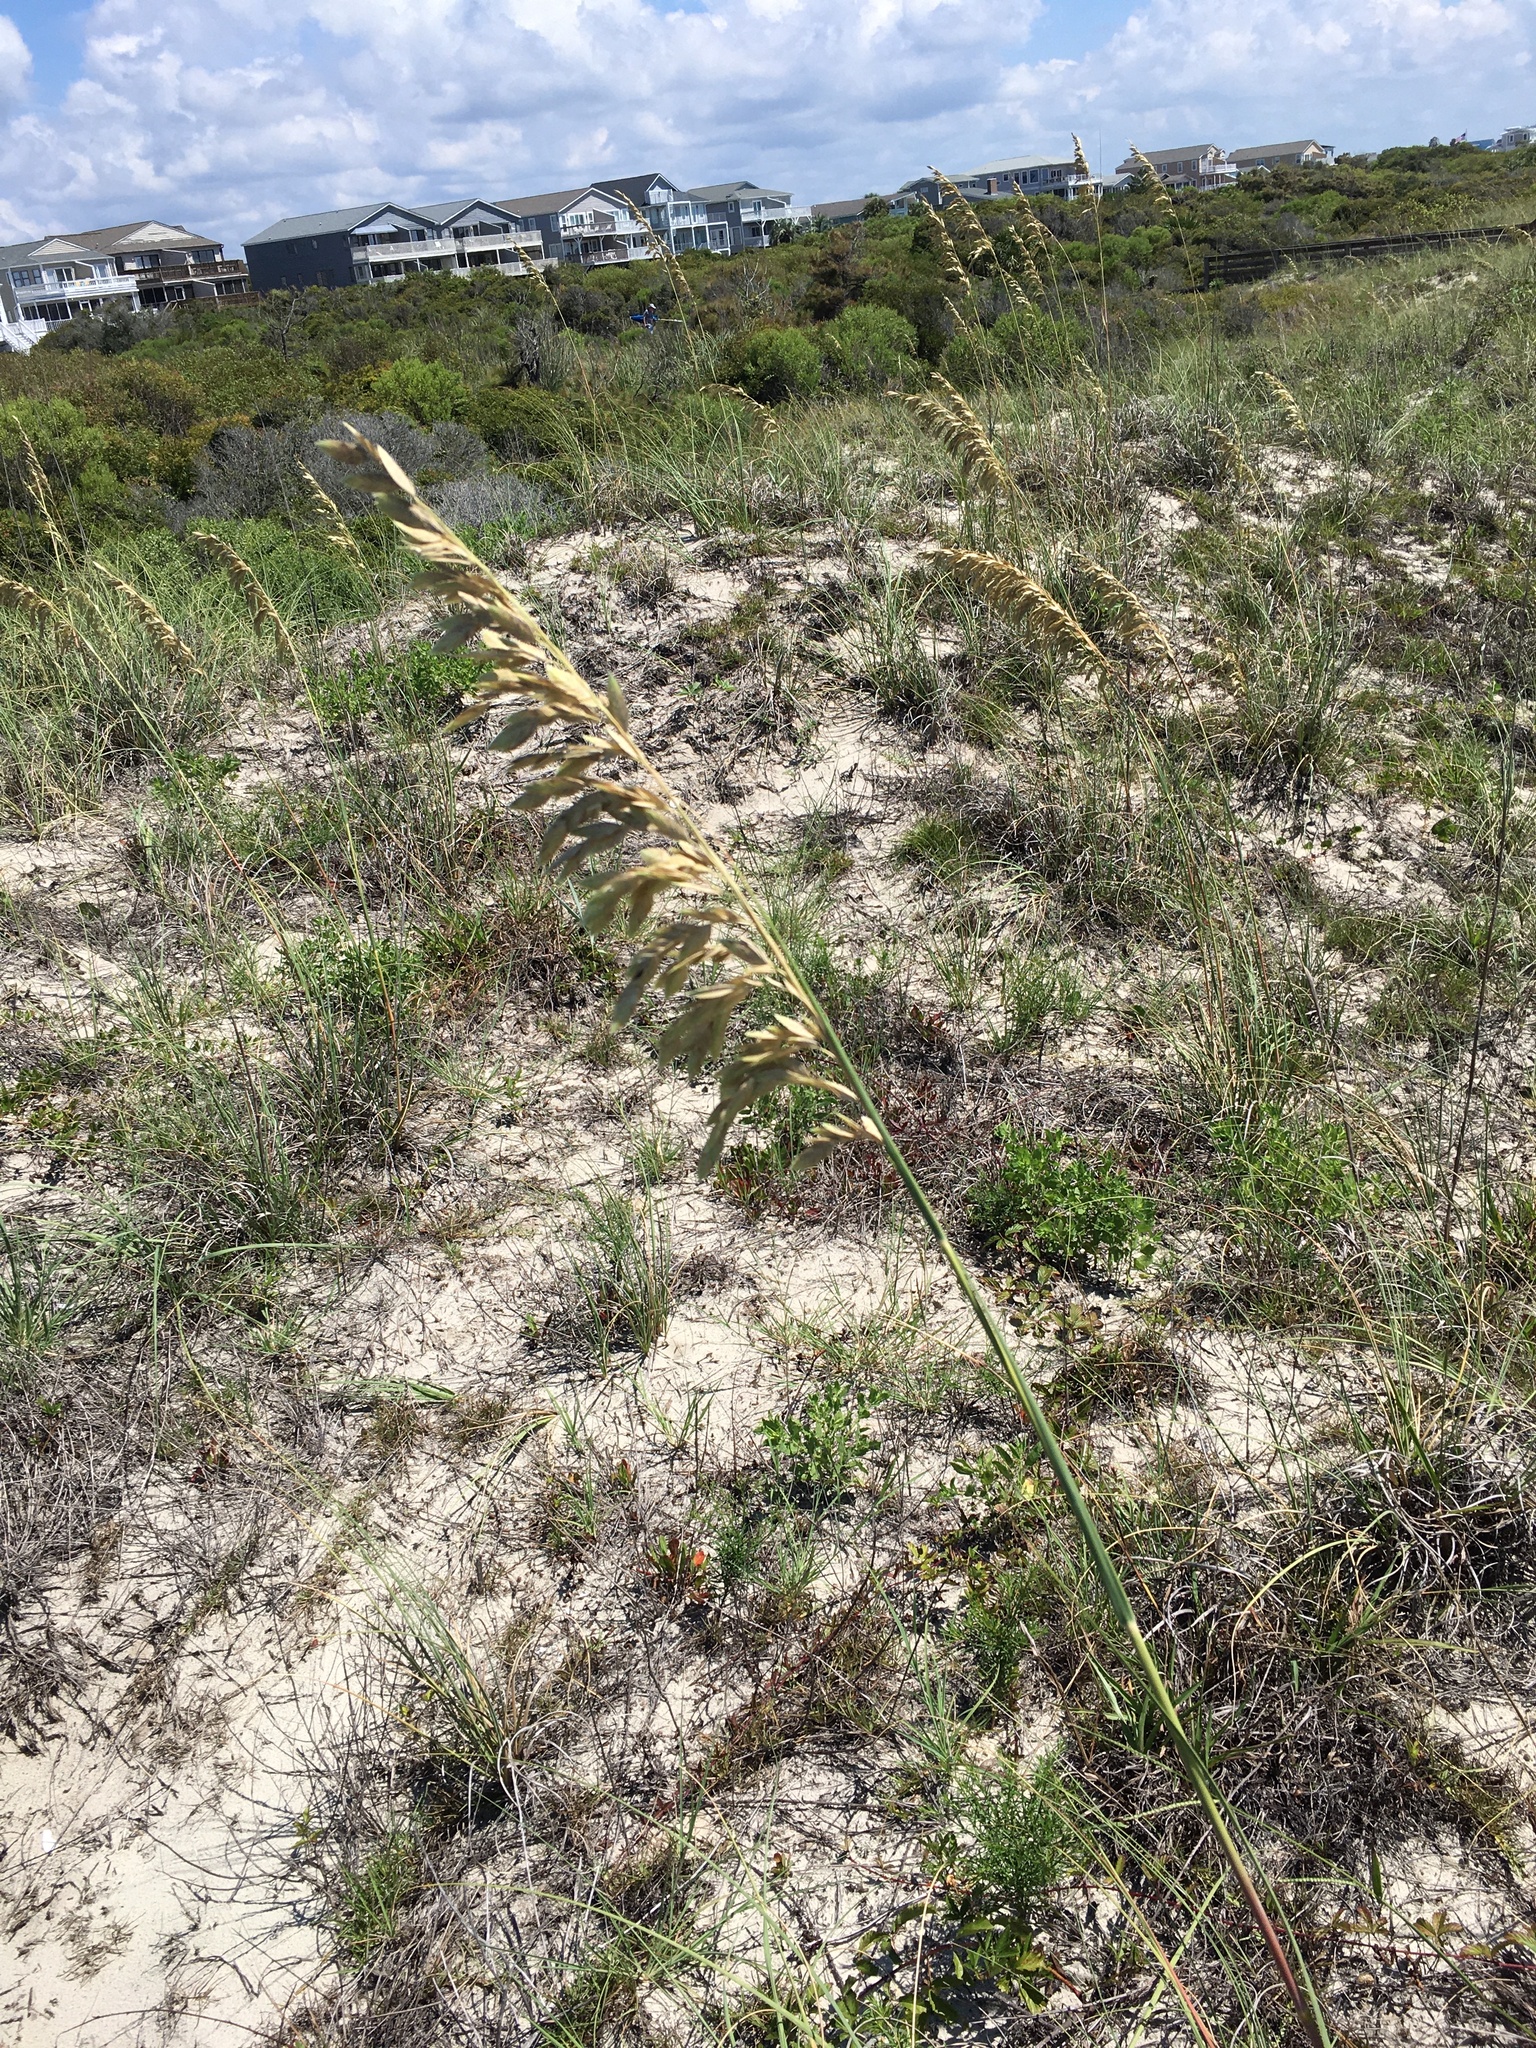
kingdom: Plantae
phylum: Tracheophyta
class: Liliopsida
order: Poales
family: Poaceae
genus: Uniola
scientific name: Uniola paniculata
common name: Seaside-oats
